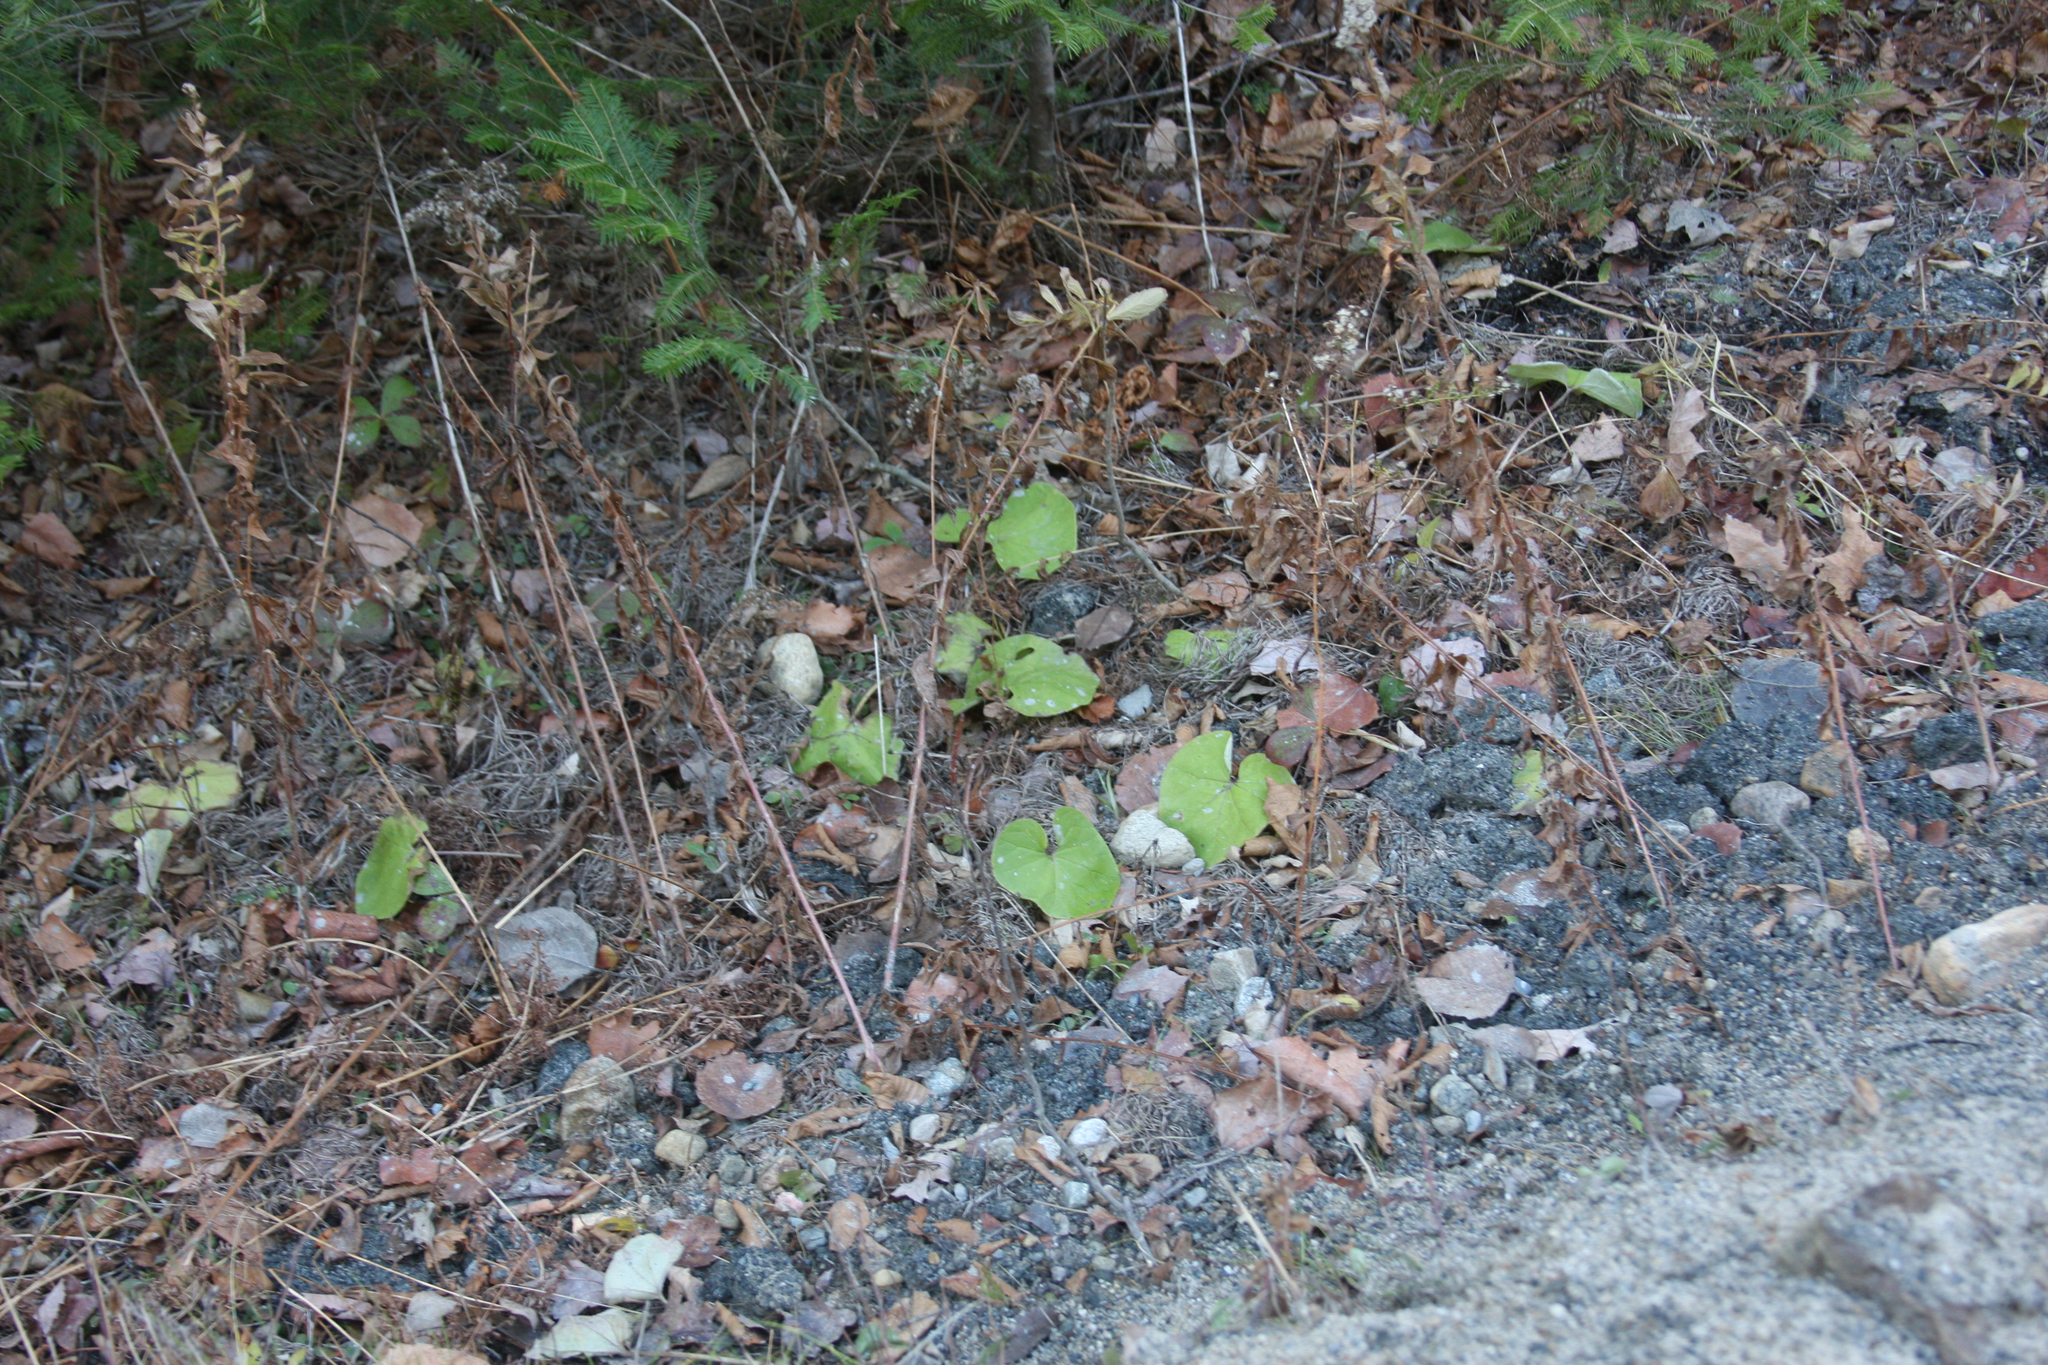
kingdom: Plantae
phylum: Tracheophyta
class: Magnoliopsida
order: Asterales
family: Asteraceae
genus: Tussilago
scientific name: Tussilago farfara
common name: Coltsfoot
